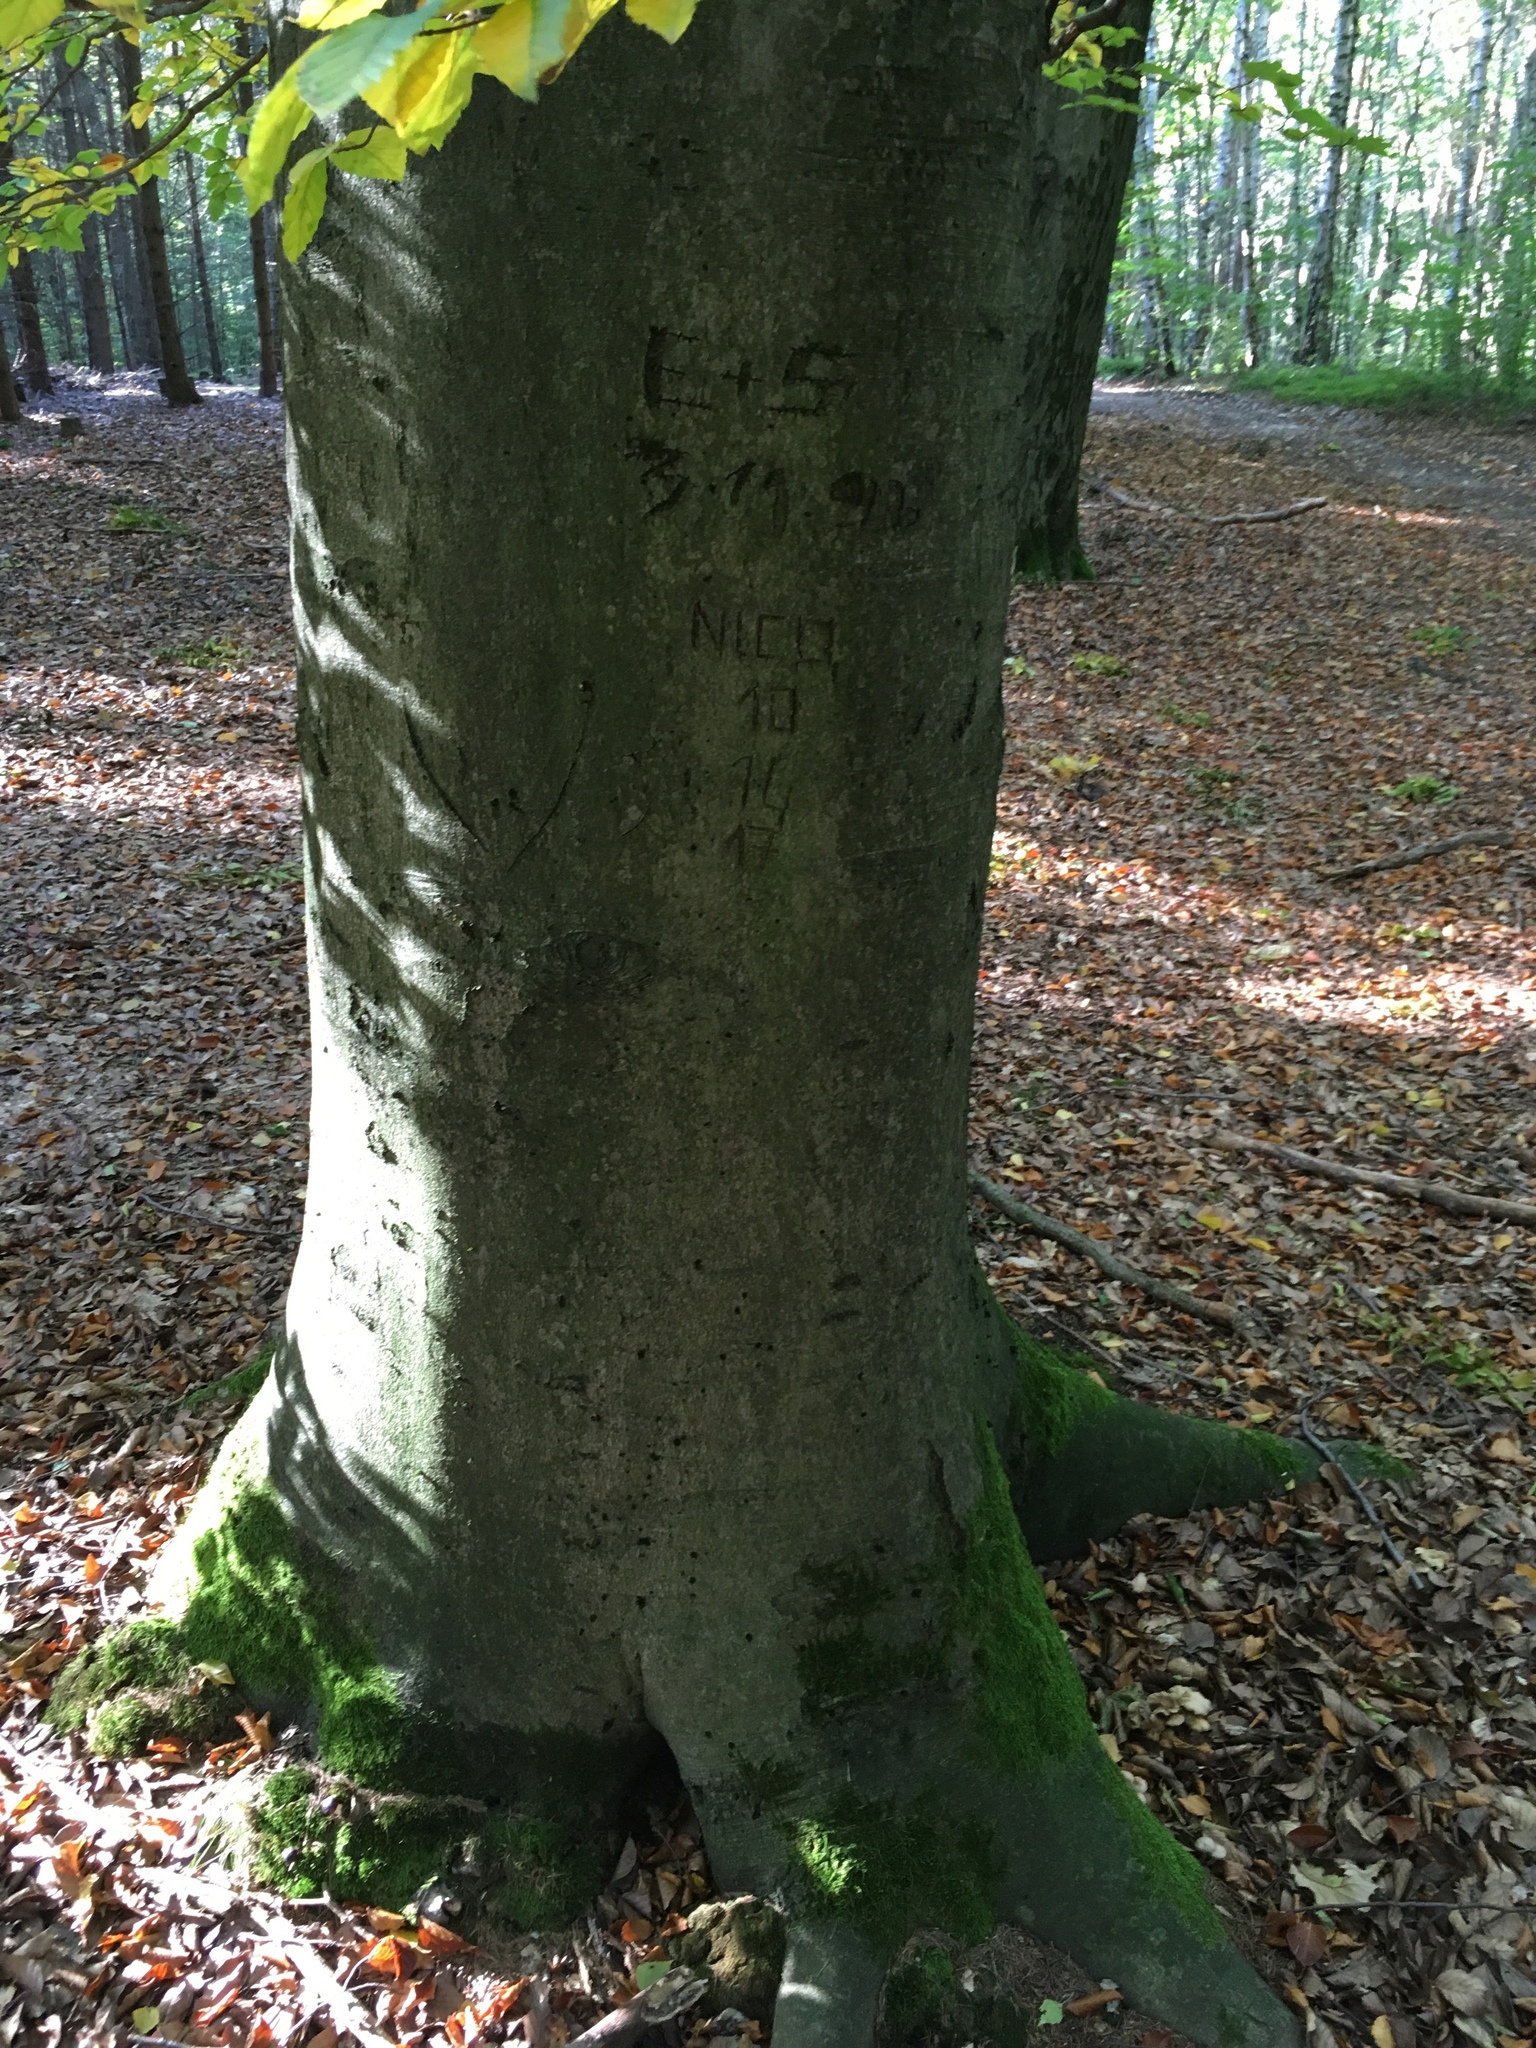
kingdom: Plantae
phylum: Tracheophyta
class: Magnoliopsida
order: Fagales
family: Fagaceae
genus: Fagus
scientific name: Fagus sylvatica
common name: Beech
